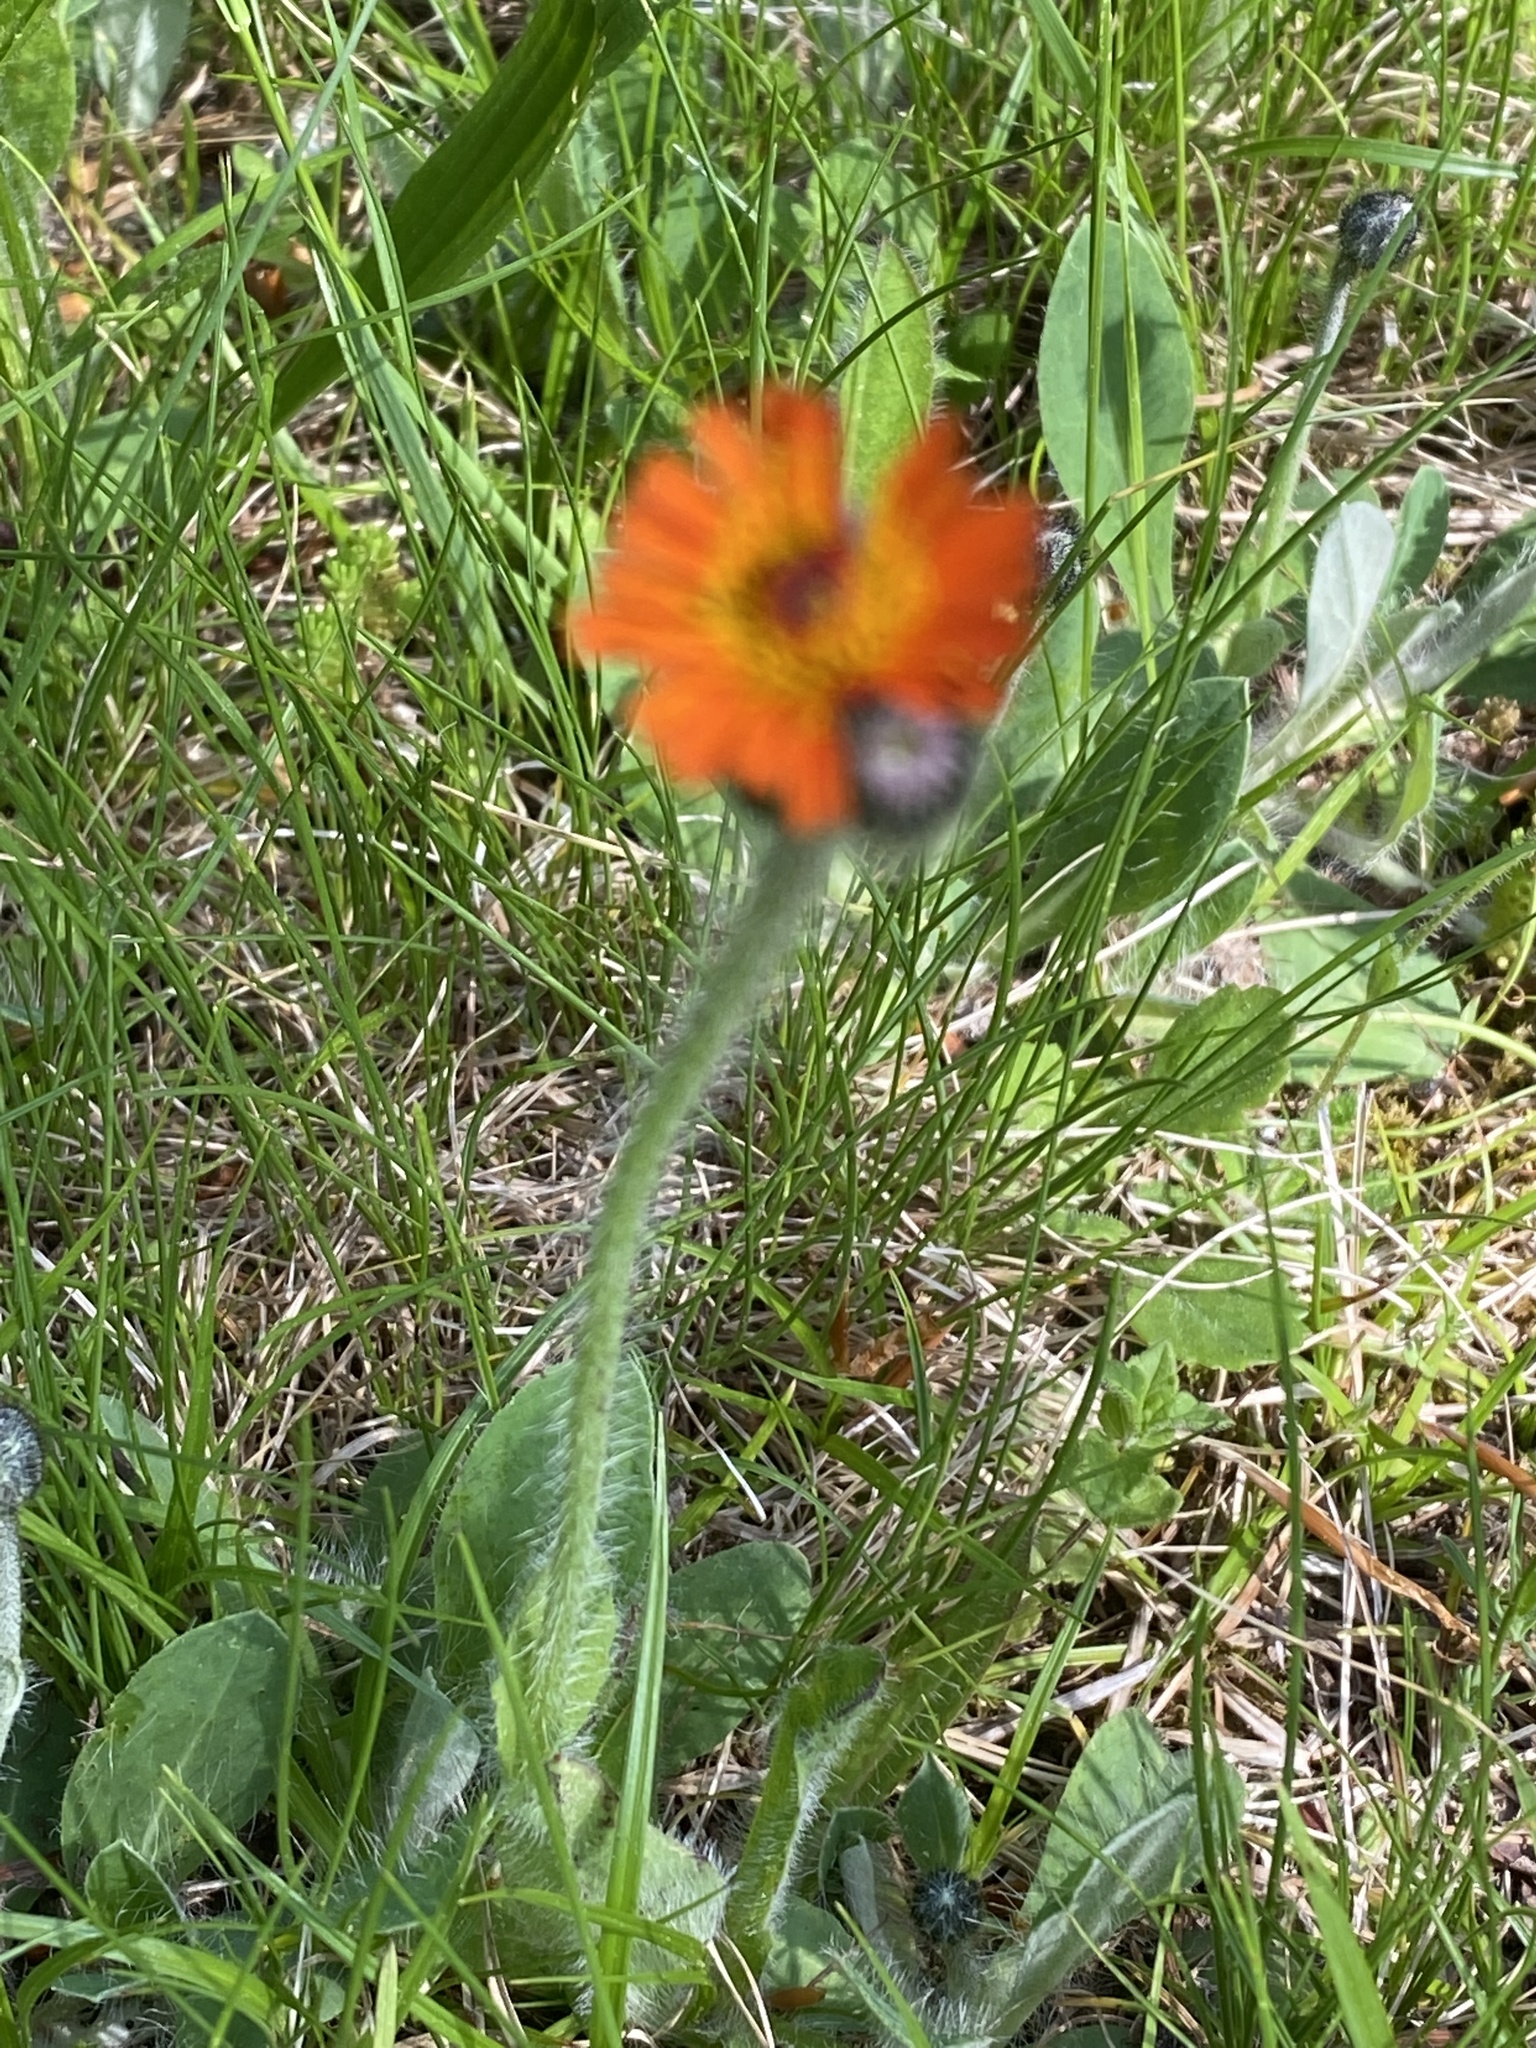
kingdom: Plantae
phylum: Tracheophyta
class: Magnoliopsida
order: Asterales
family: Asteraceae
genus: Pilosella
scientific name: Pilosella aurantiaca
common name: Fox-and-cubs
